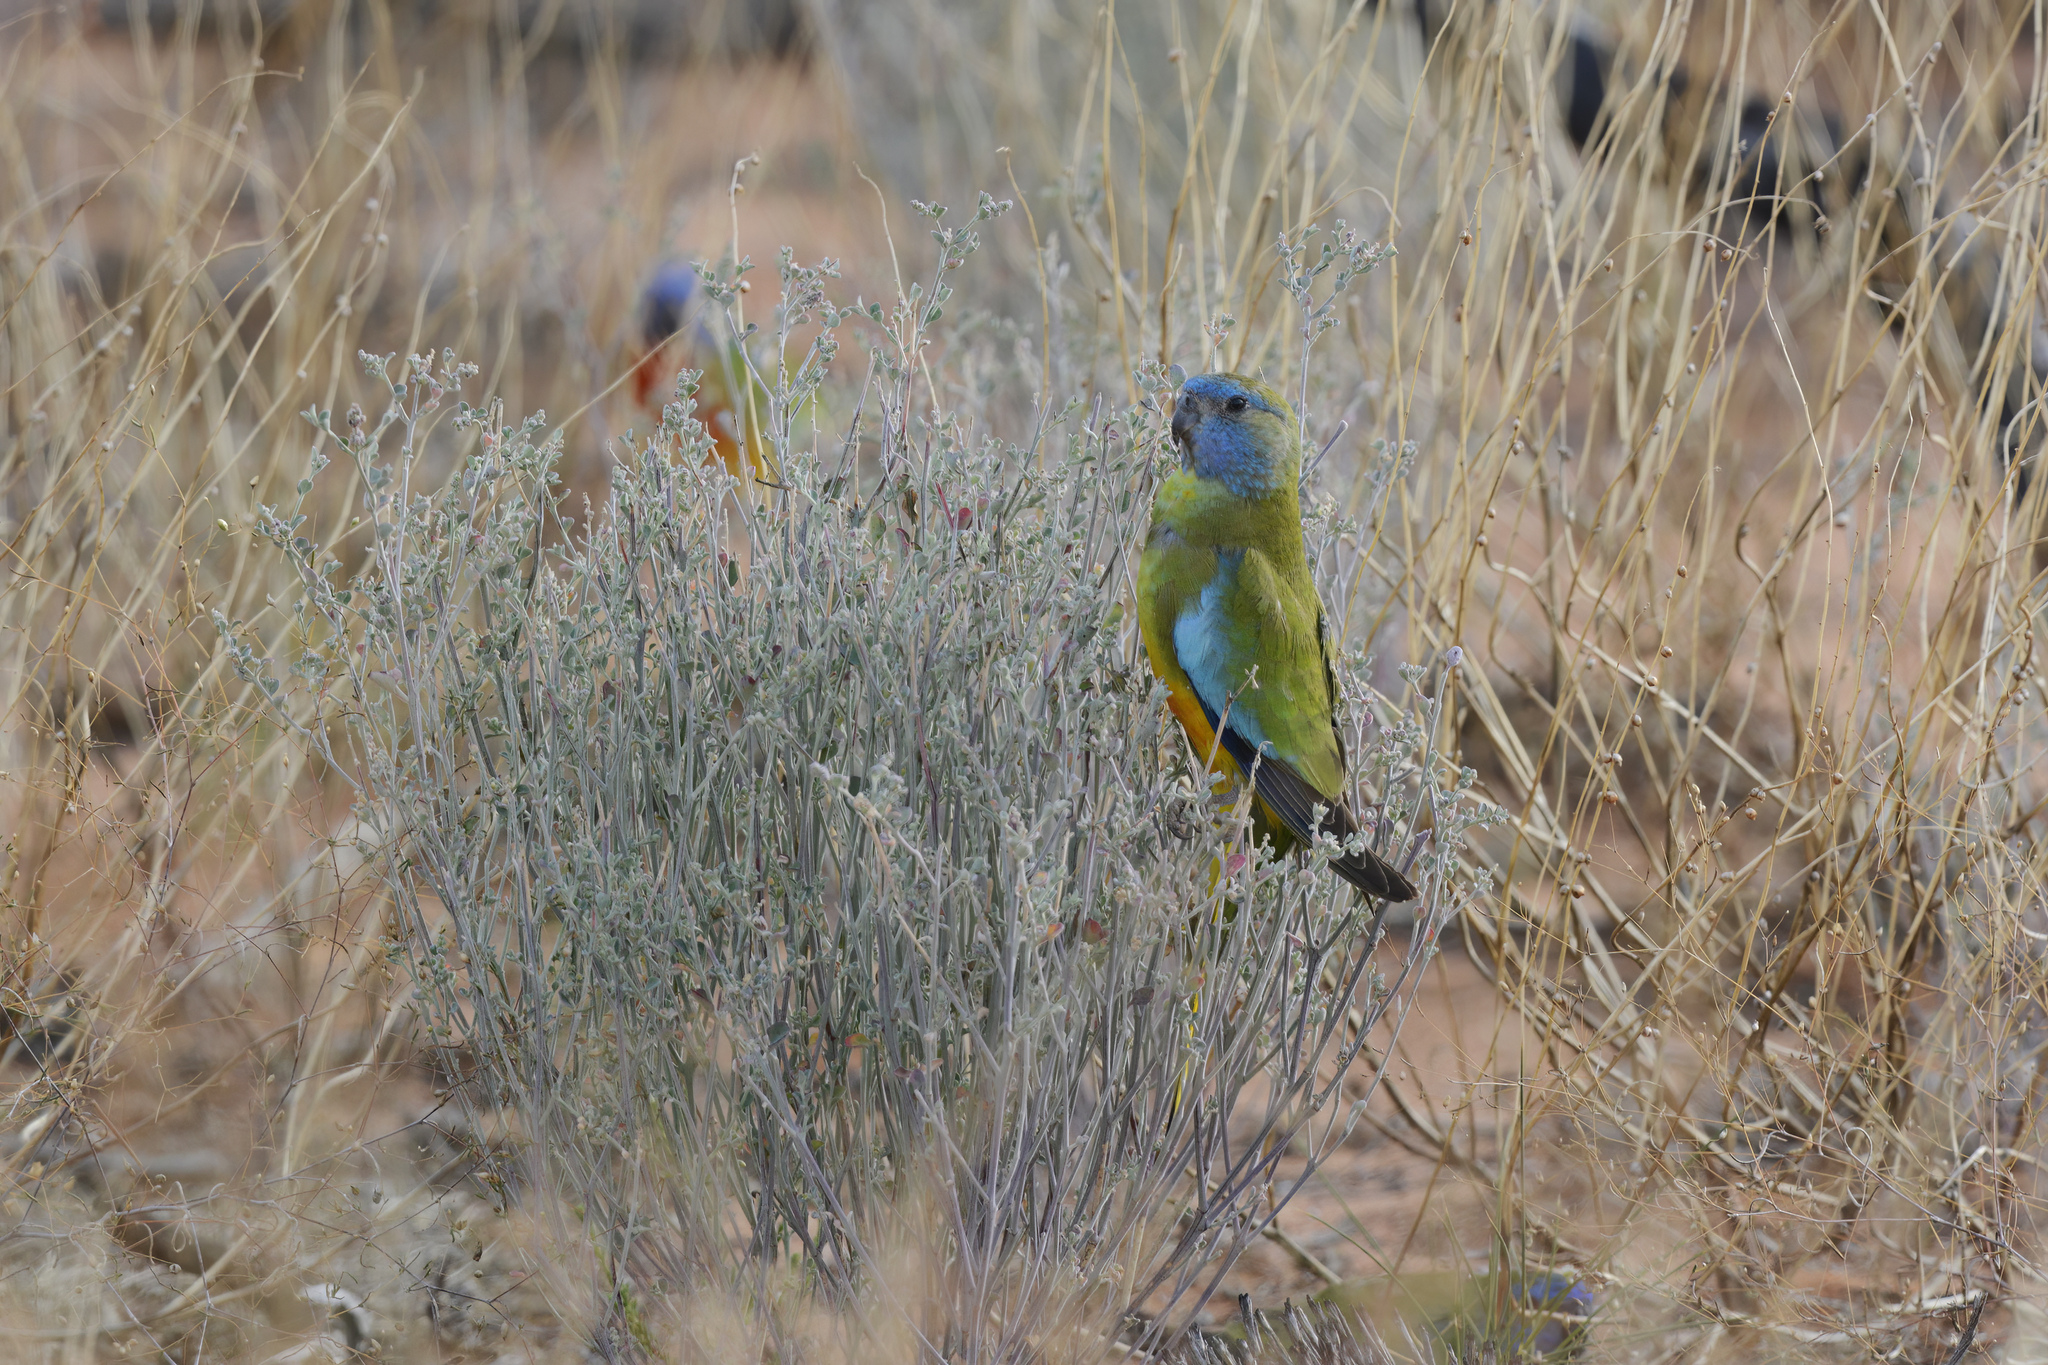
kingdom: Animalia
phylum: Chordata
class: Aves
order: Psittaciformes
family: Psittacidae
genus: Neophema
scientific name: Neophema splendida
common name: Scarlet-chested parrot
